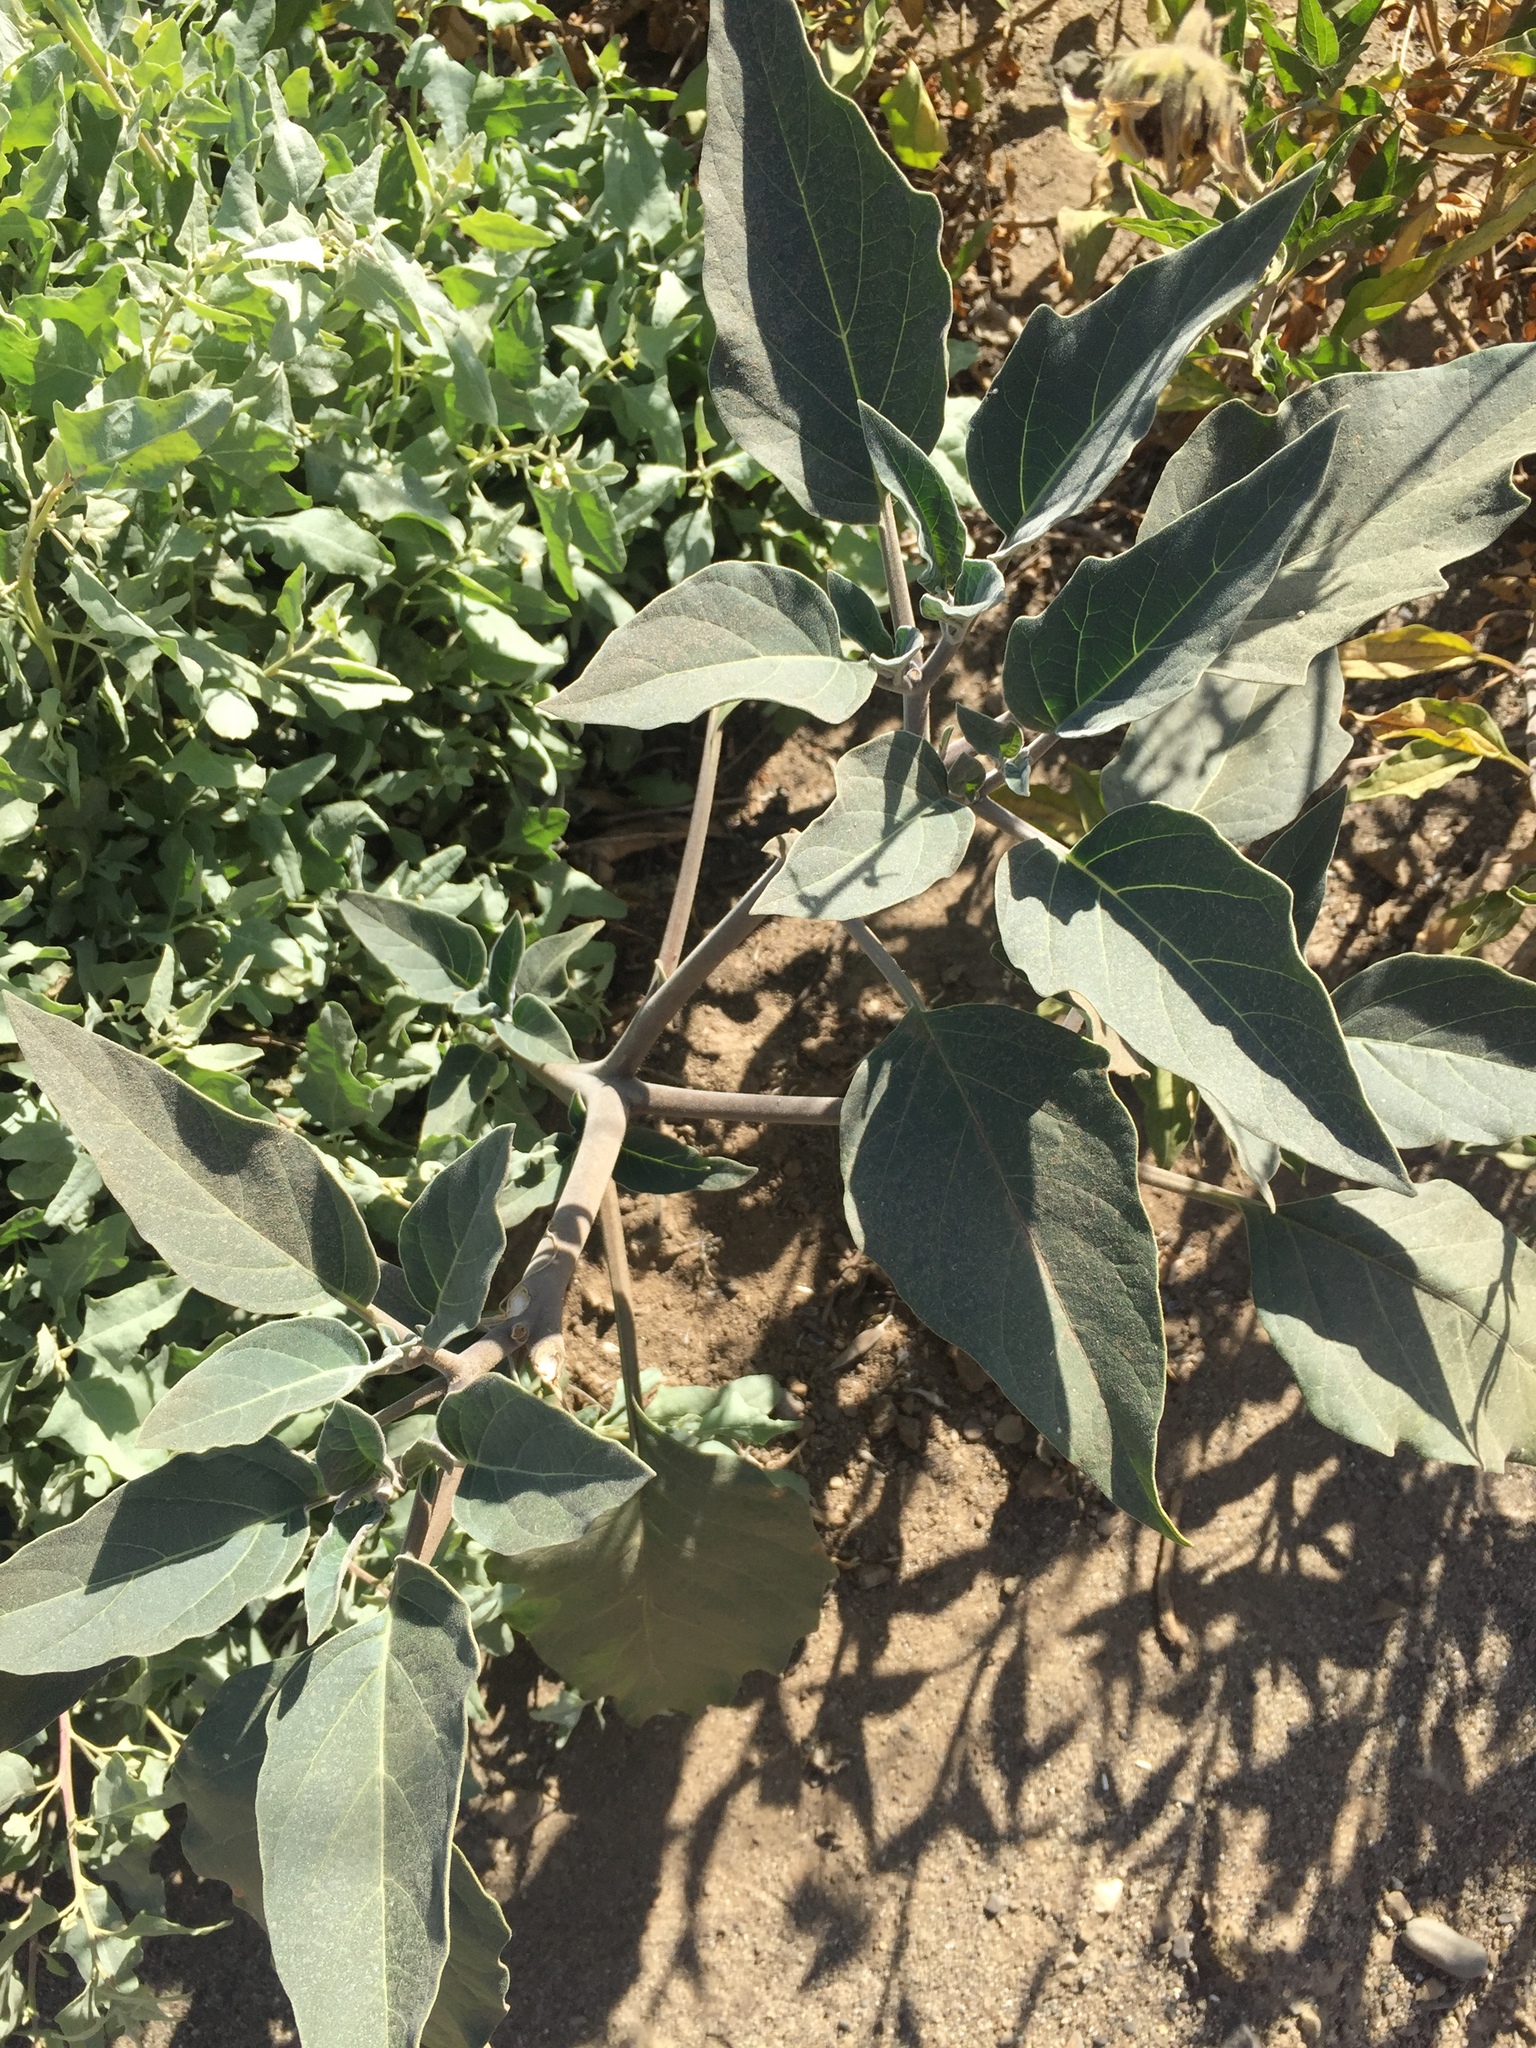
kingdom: Plantae
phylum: Tracheophyta
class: Magnoliopsida
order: Solanales
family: Solanaceae
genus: Datura
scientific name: Datura wrightii
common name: Sacred thorn-apple
